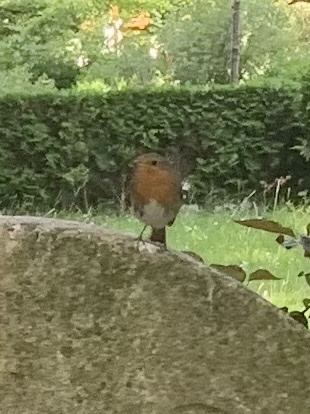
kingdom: Animalia
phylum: Chordata
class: Aves
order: Passeriformes
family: Muscicapidae
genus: Erithacus
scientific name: Erithacus rubecula
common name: European robin
